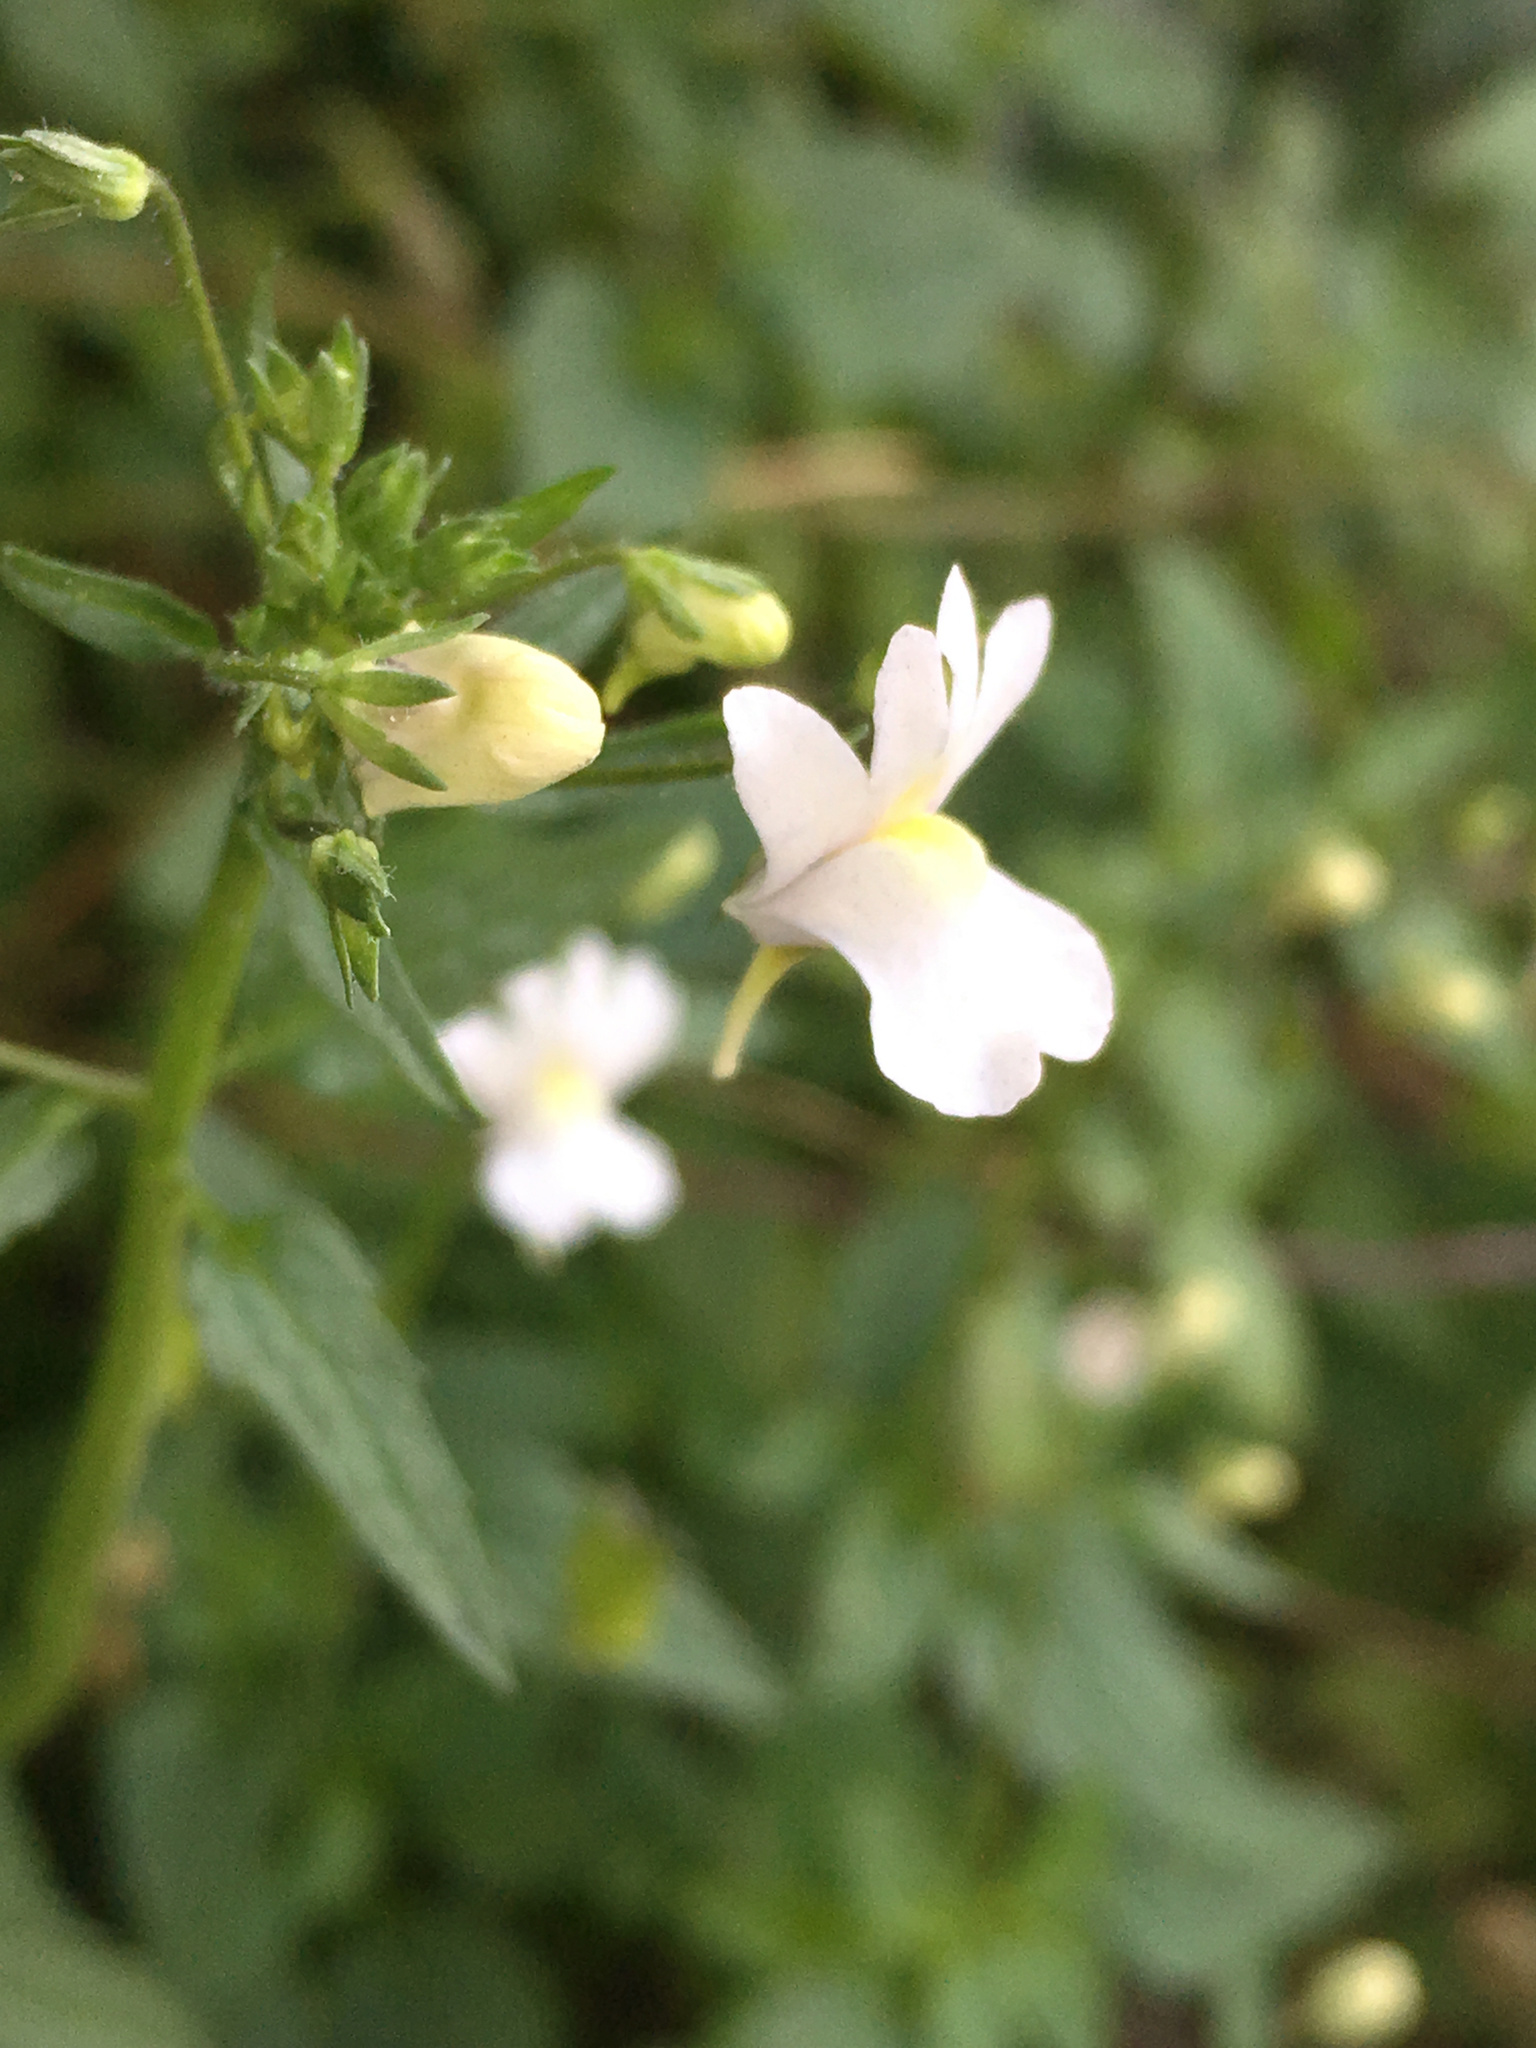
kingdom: Plantae
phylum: Tracheophyta
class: Magnoliopsida
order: Lamiales
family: Scrophulariaceae
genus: Nemesia
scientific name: Nemesia floribunda
